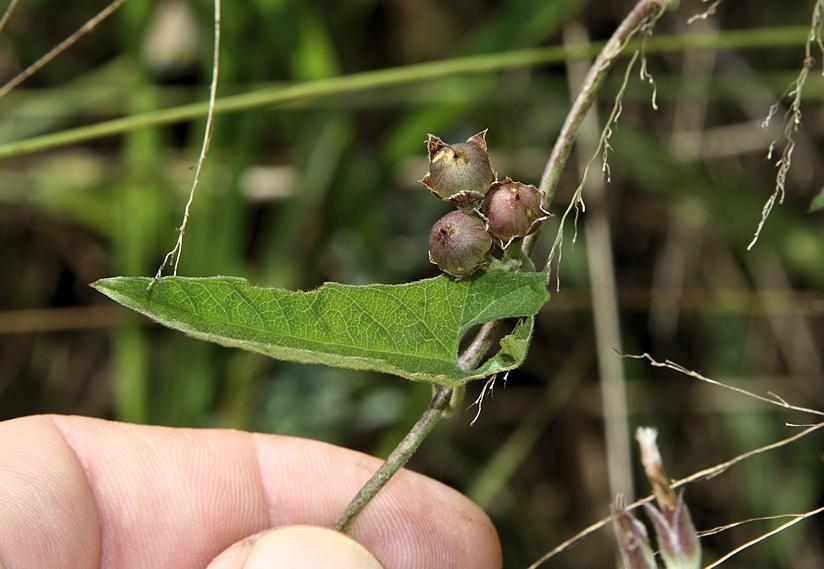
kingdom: Plantae
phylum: Tracheophyta
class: Magnoliopsida
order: Solanales
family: Convolvulaceae
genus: Convolvulus
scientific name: Convolvulus sagittatus
